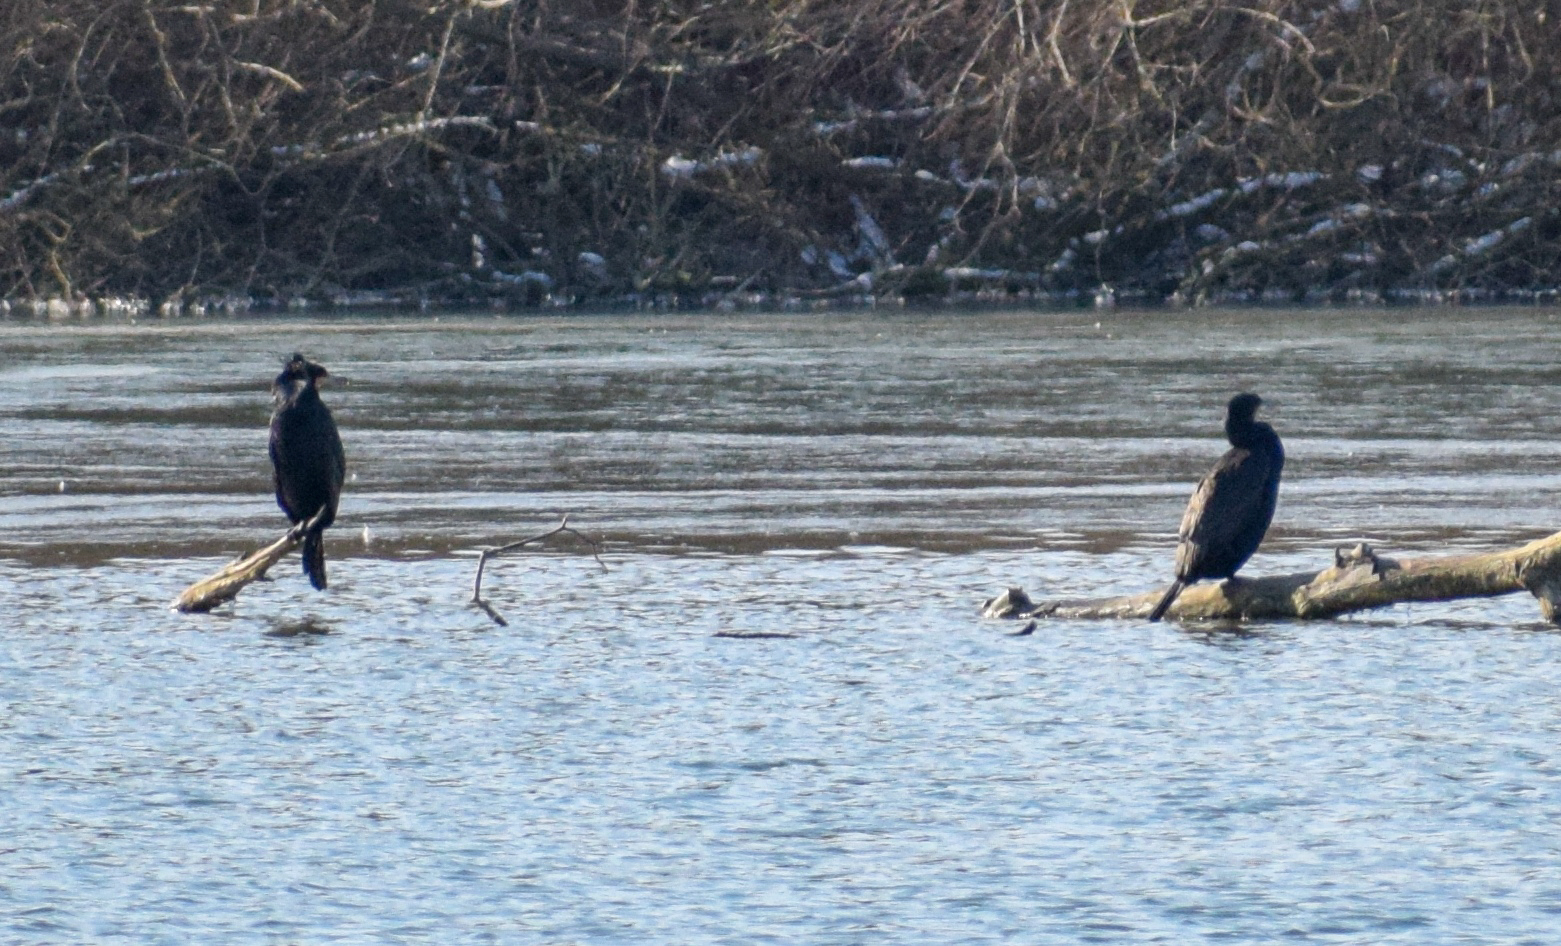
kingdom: Animalia
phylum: Chordata
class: Aves
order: Suliformes
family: Phalacrocoracidae
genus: Phalacrocorax
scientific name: Phalacrocorax carbo
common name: Great cormorant
